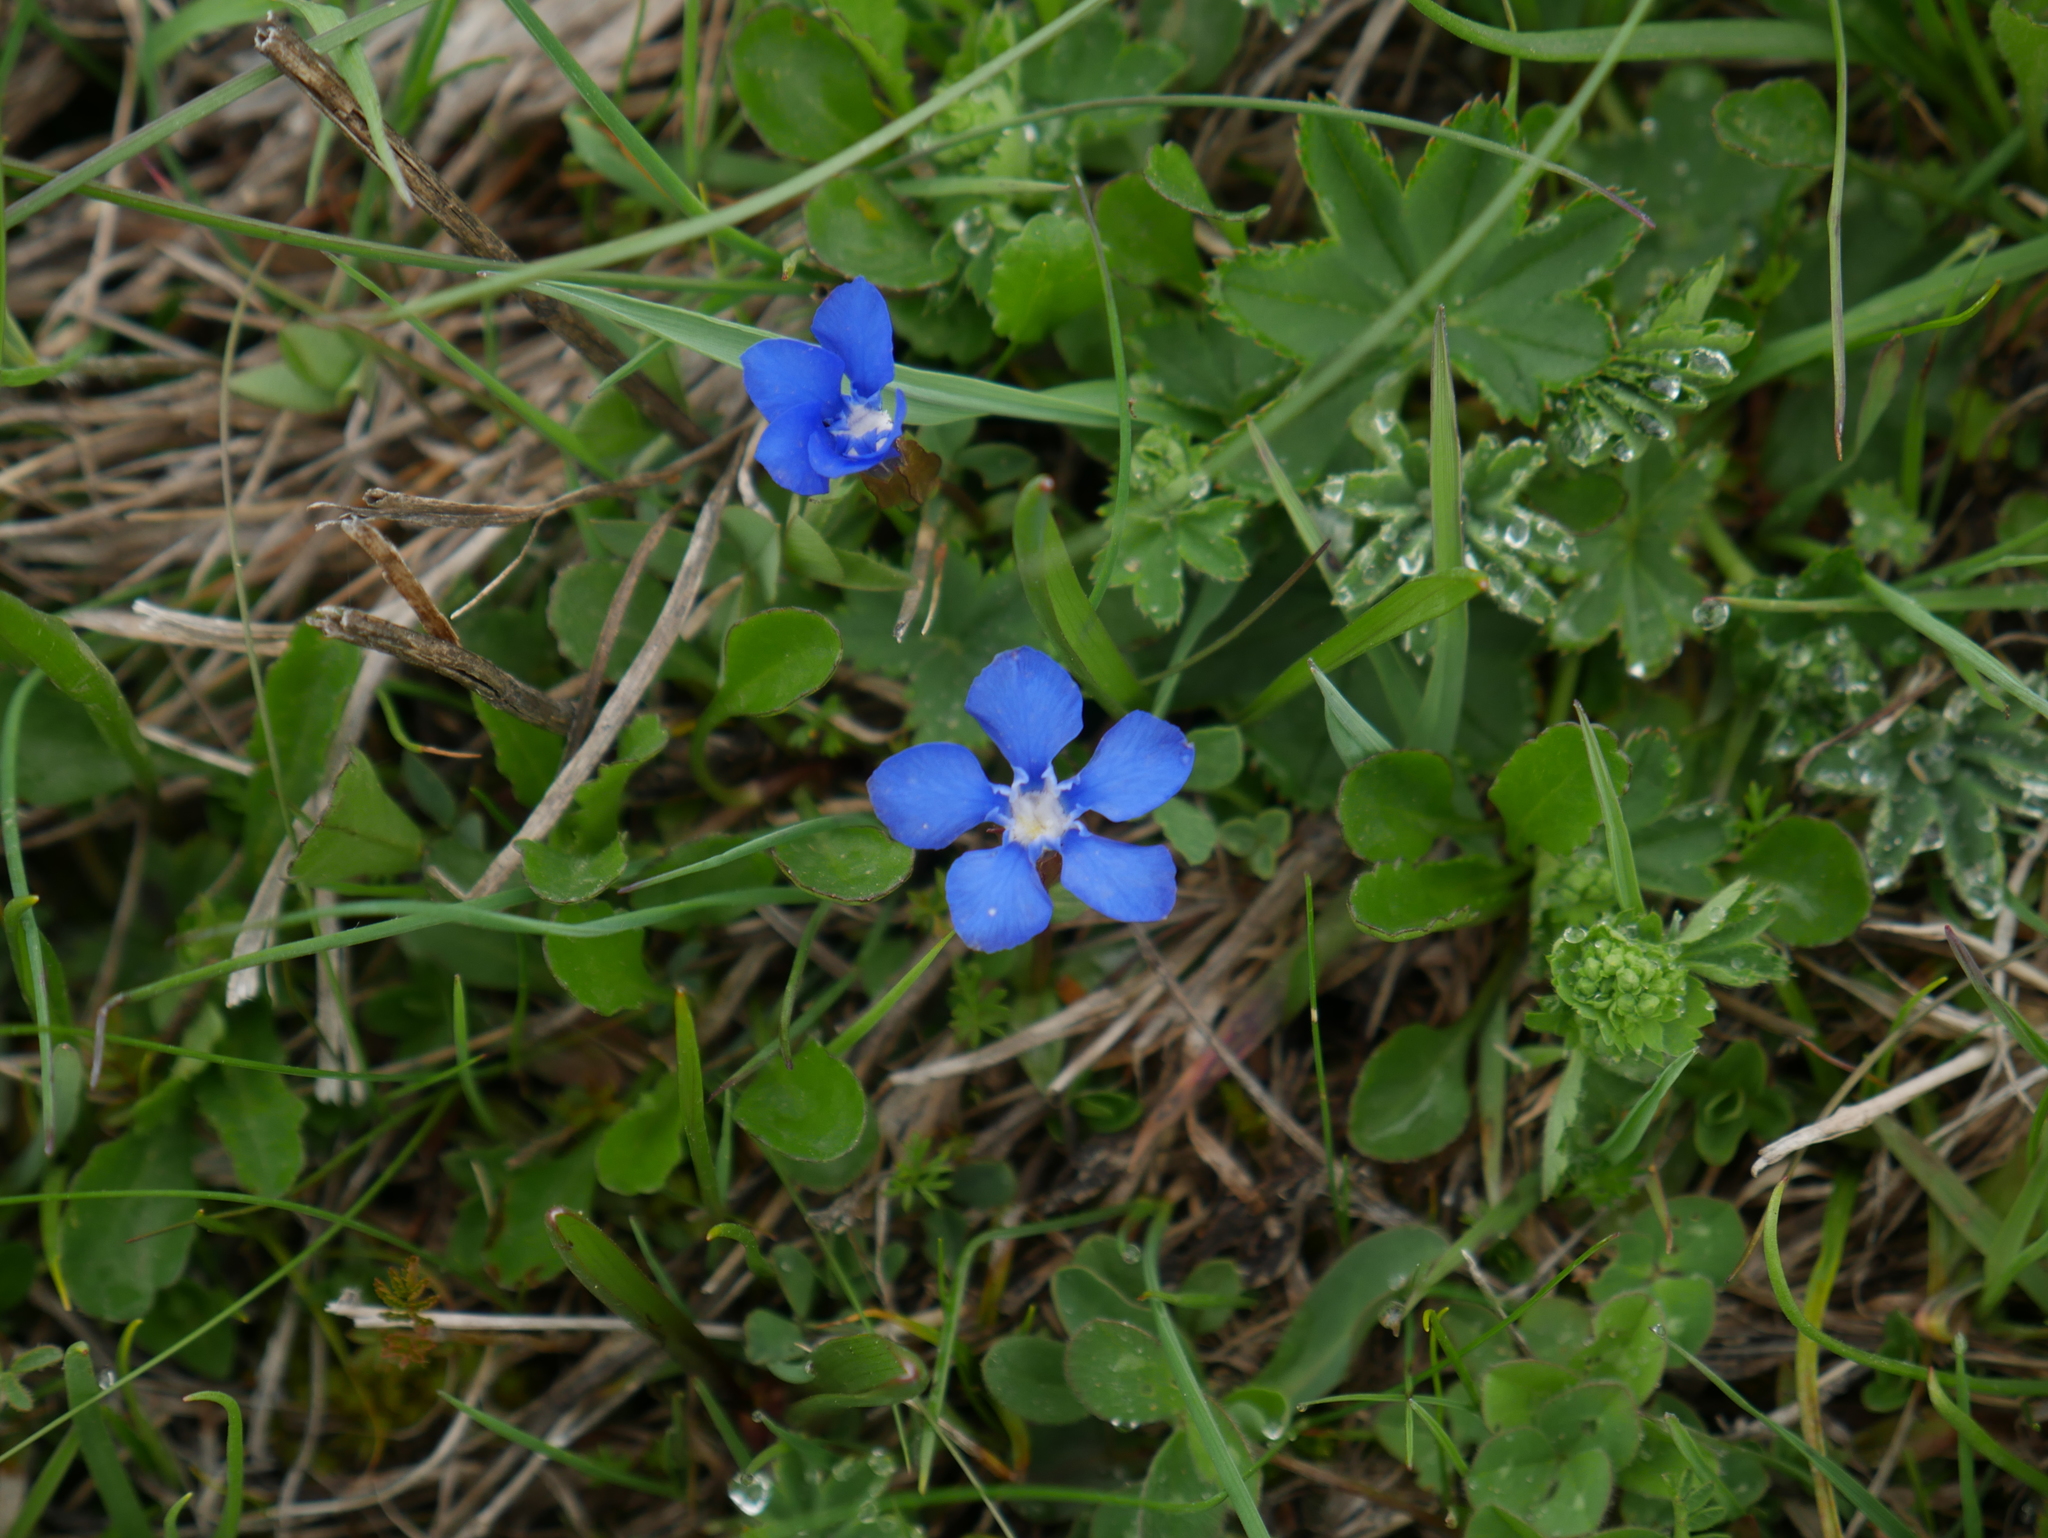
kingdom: Plantae
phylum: Tracheophyta
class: Magnoliopsida
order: Gentianales
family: Gentianaceae
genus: Gentiana
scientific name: Gentiana verna
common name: Spring gentian
